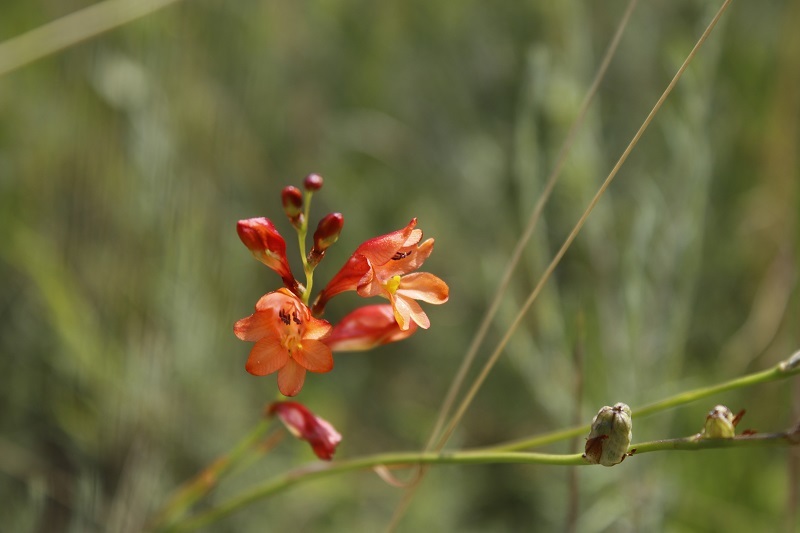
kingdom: Plantae
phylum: Tracheophyta
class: Liliopsida
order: Asparagales
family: Iridaceae
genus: Tritonia
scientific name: Tritonia nelsonii
